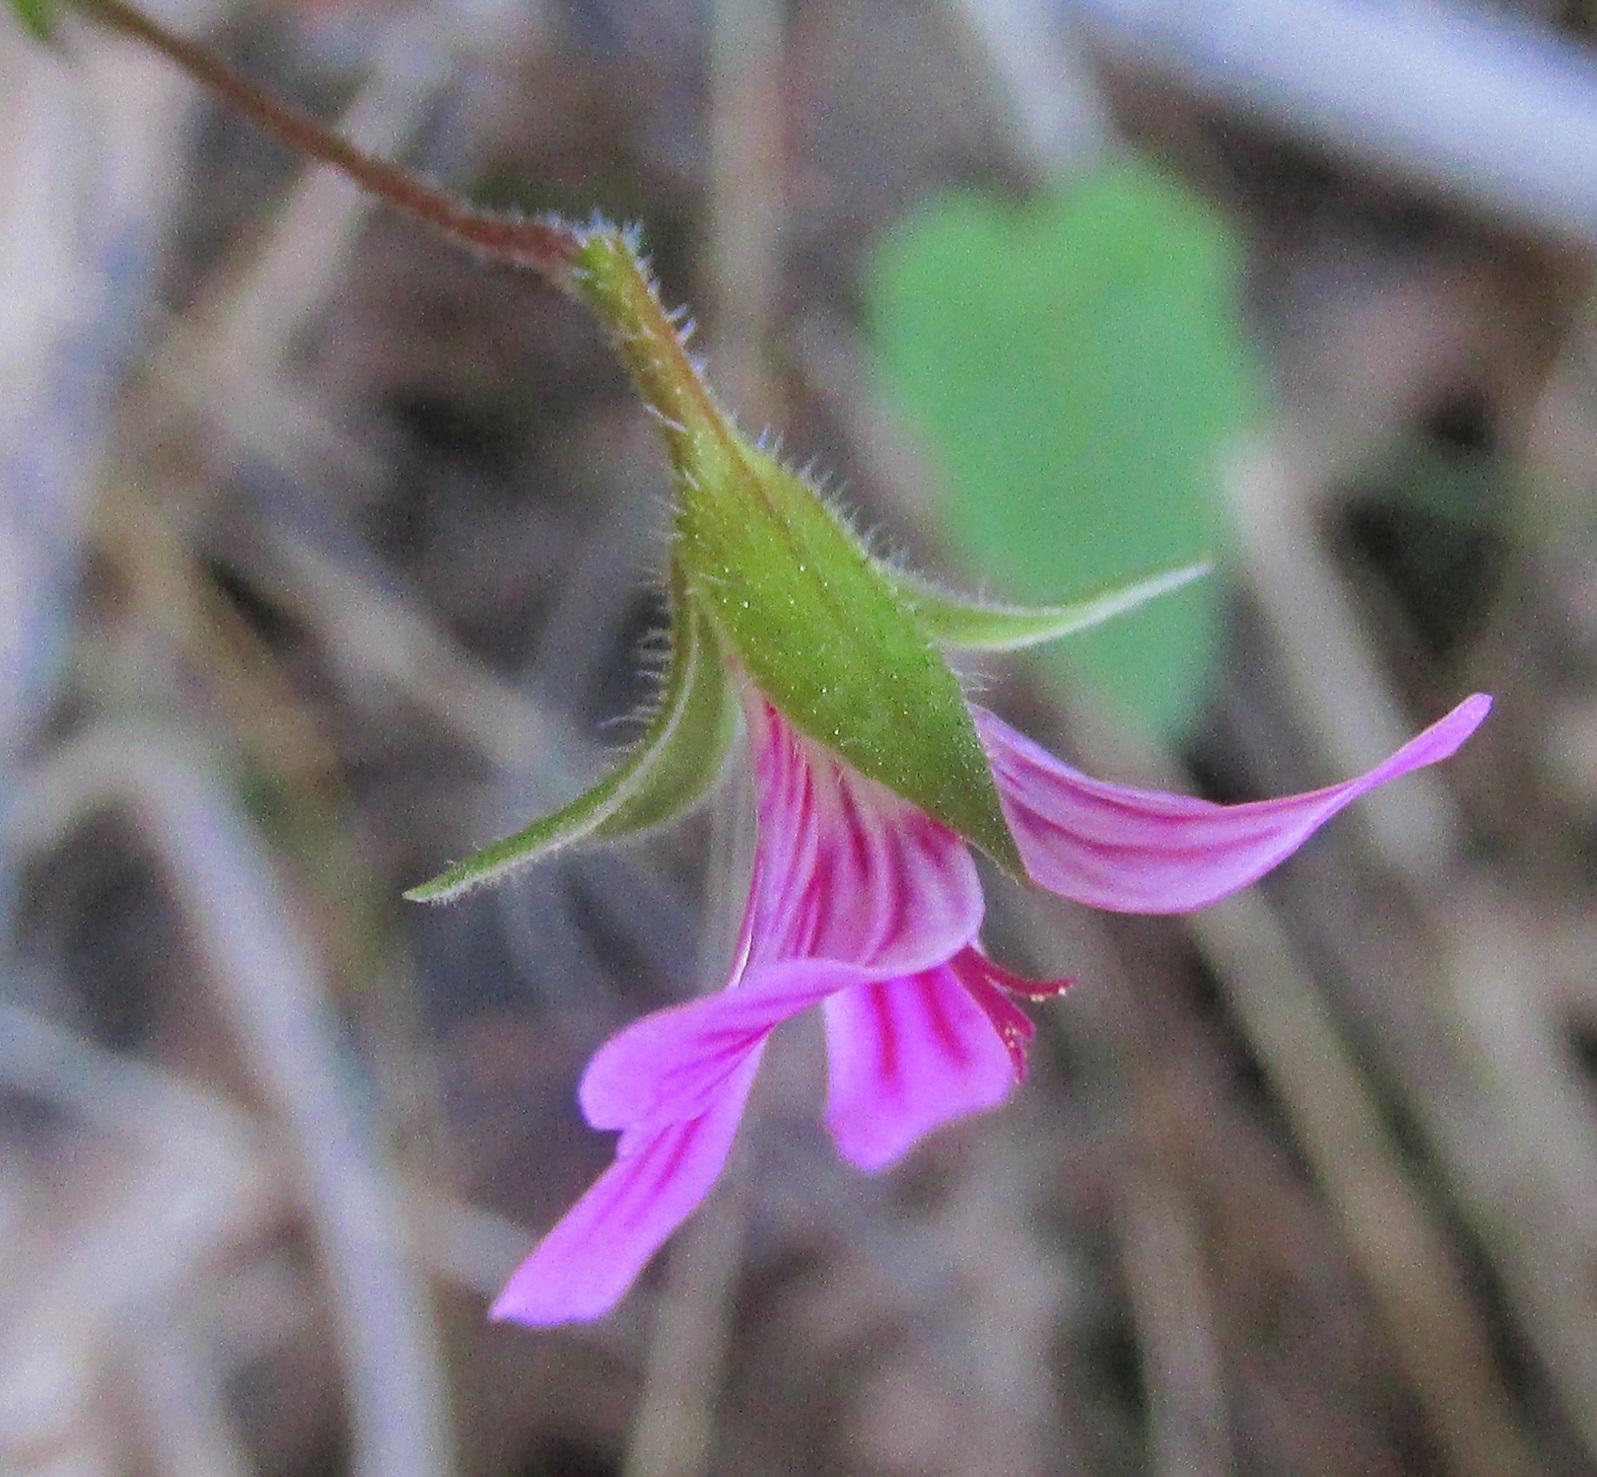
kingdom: Plantae
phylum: Tracheophyta
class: Magnoliopsida
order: Geraniales
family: Geraniaceae
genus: Pelargonium
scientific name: Pelargonium pseudosetulosum
